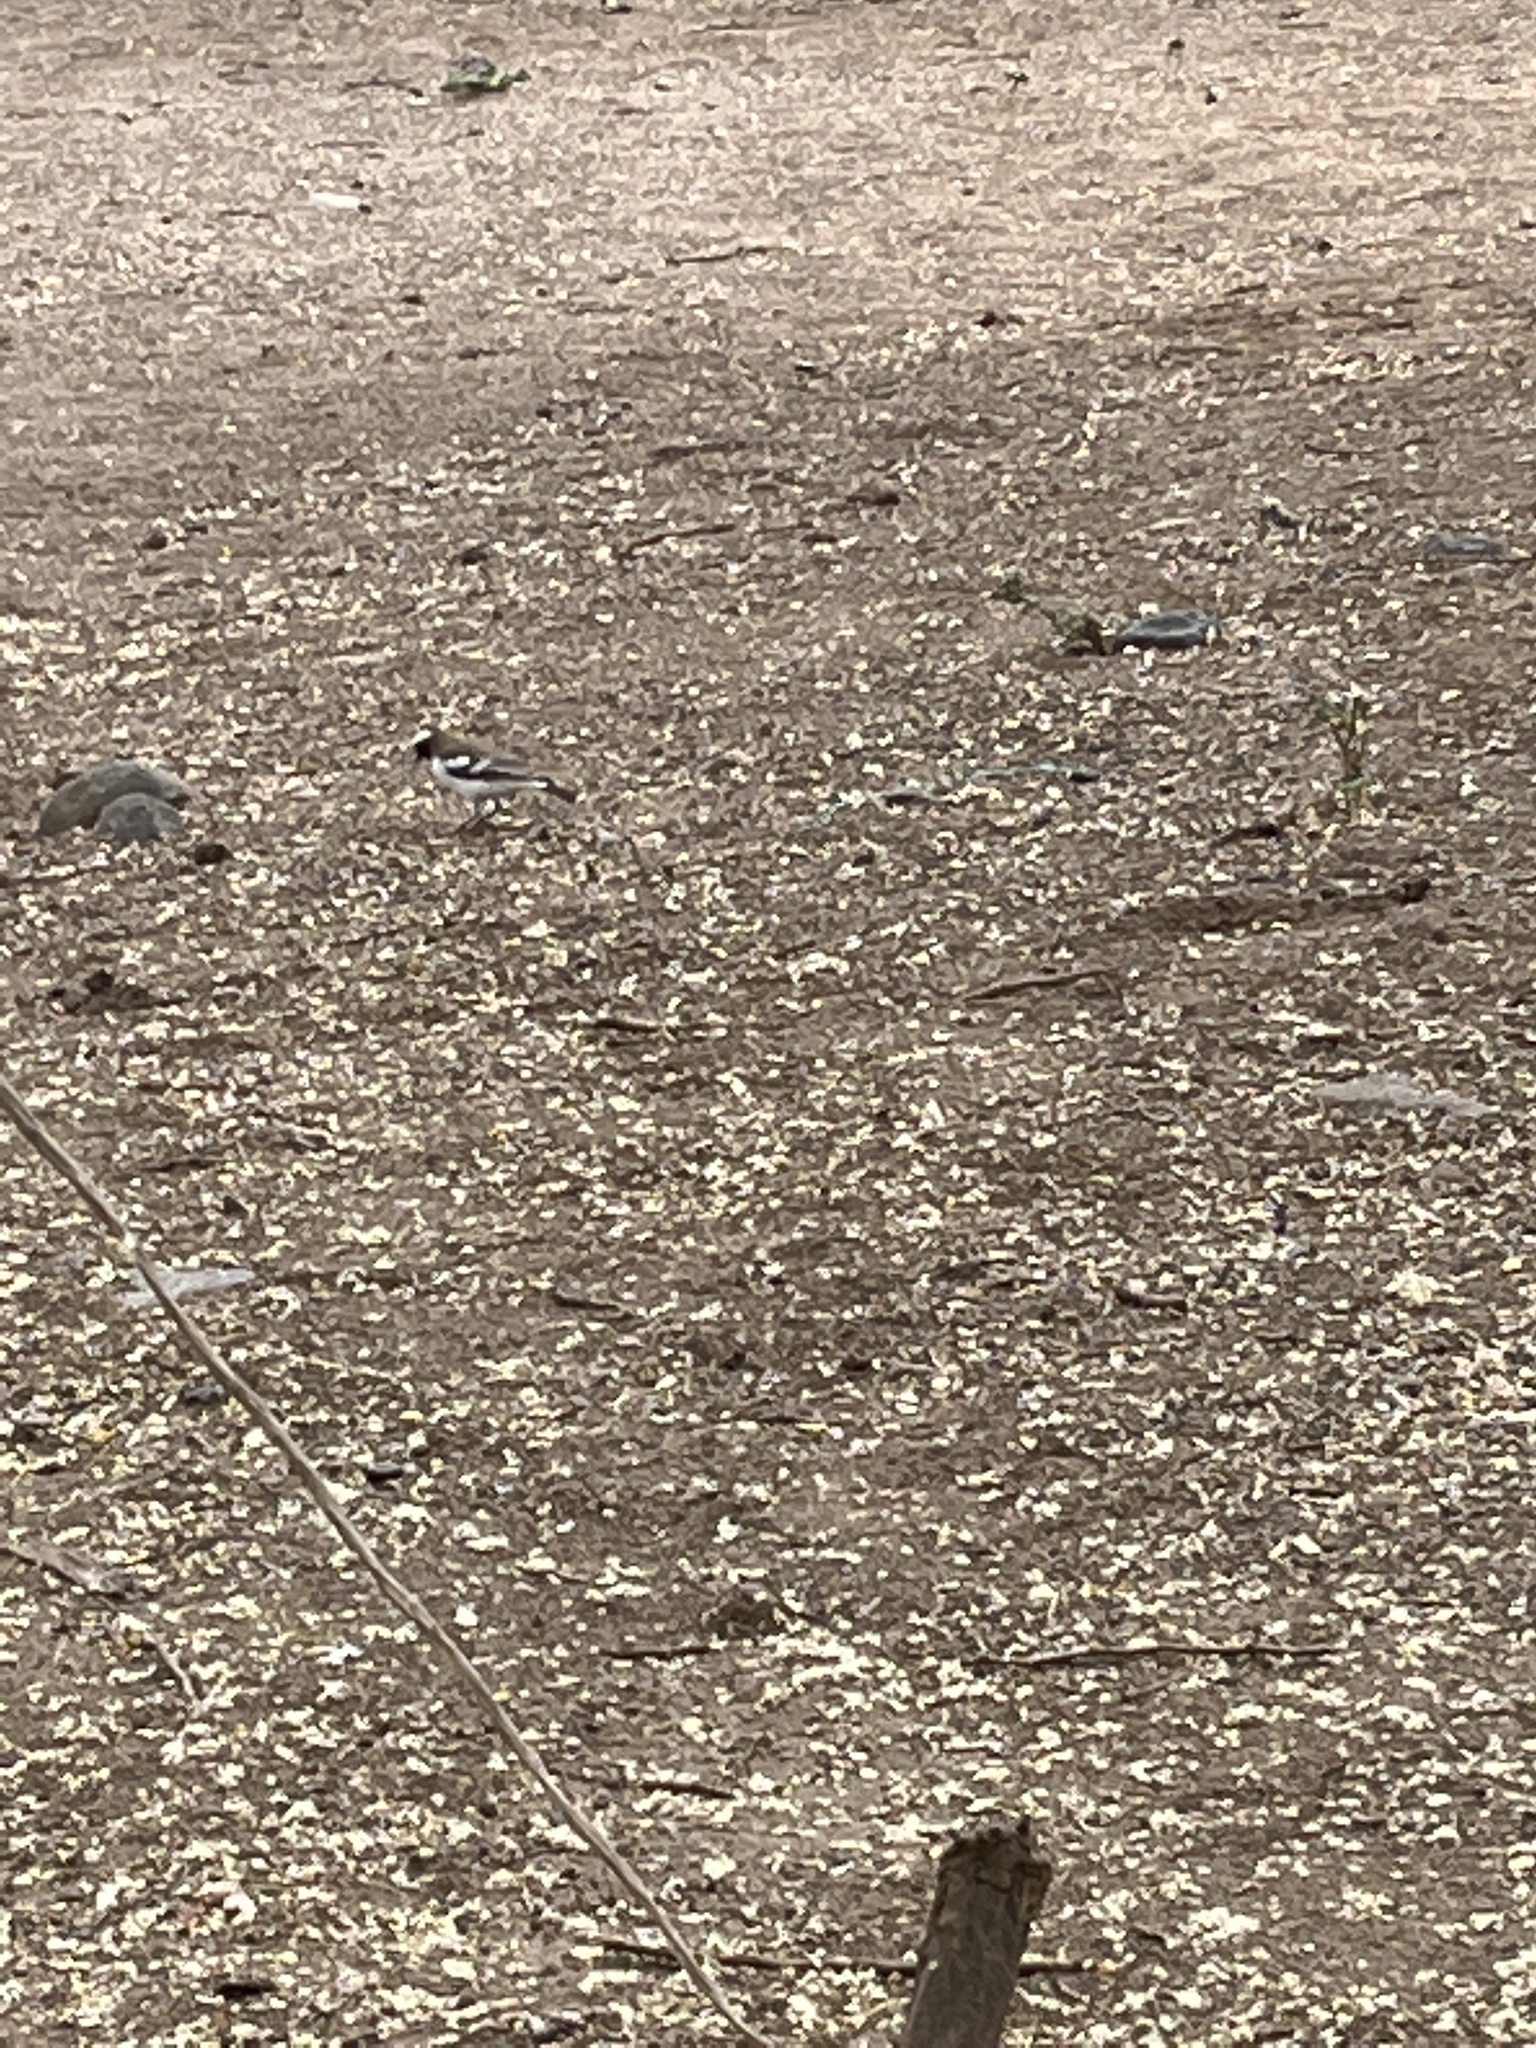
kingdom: Animalia
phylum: Chordata
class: Aves
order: Passeriformes
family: Passeridae
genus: Plocepasser
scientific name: Plocepasser mahali
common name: White-browed sparrow-weaver
